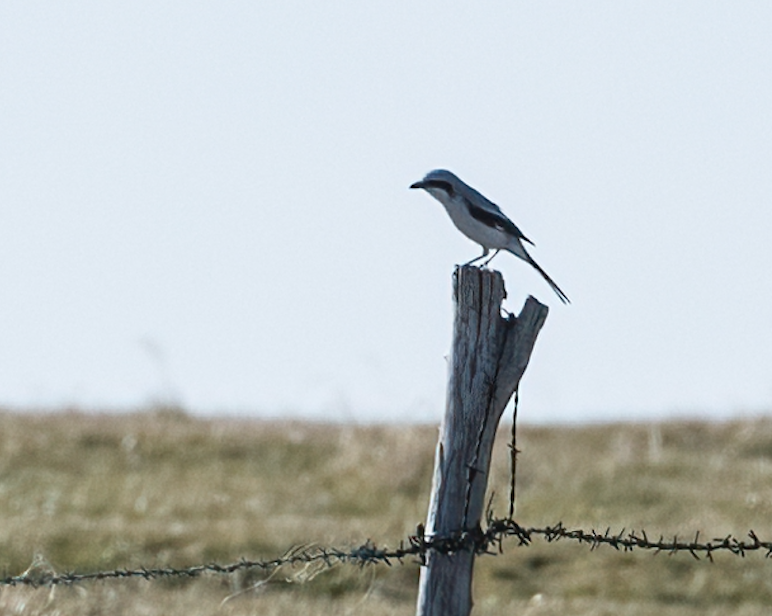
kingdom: Animalia
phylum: Chordata
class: Aves
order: Passeriformes
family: Laniidae
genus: Lanius
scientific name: Lanius excubitor
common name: Great grey shrike
